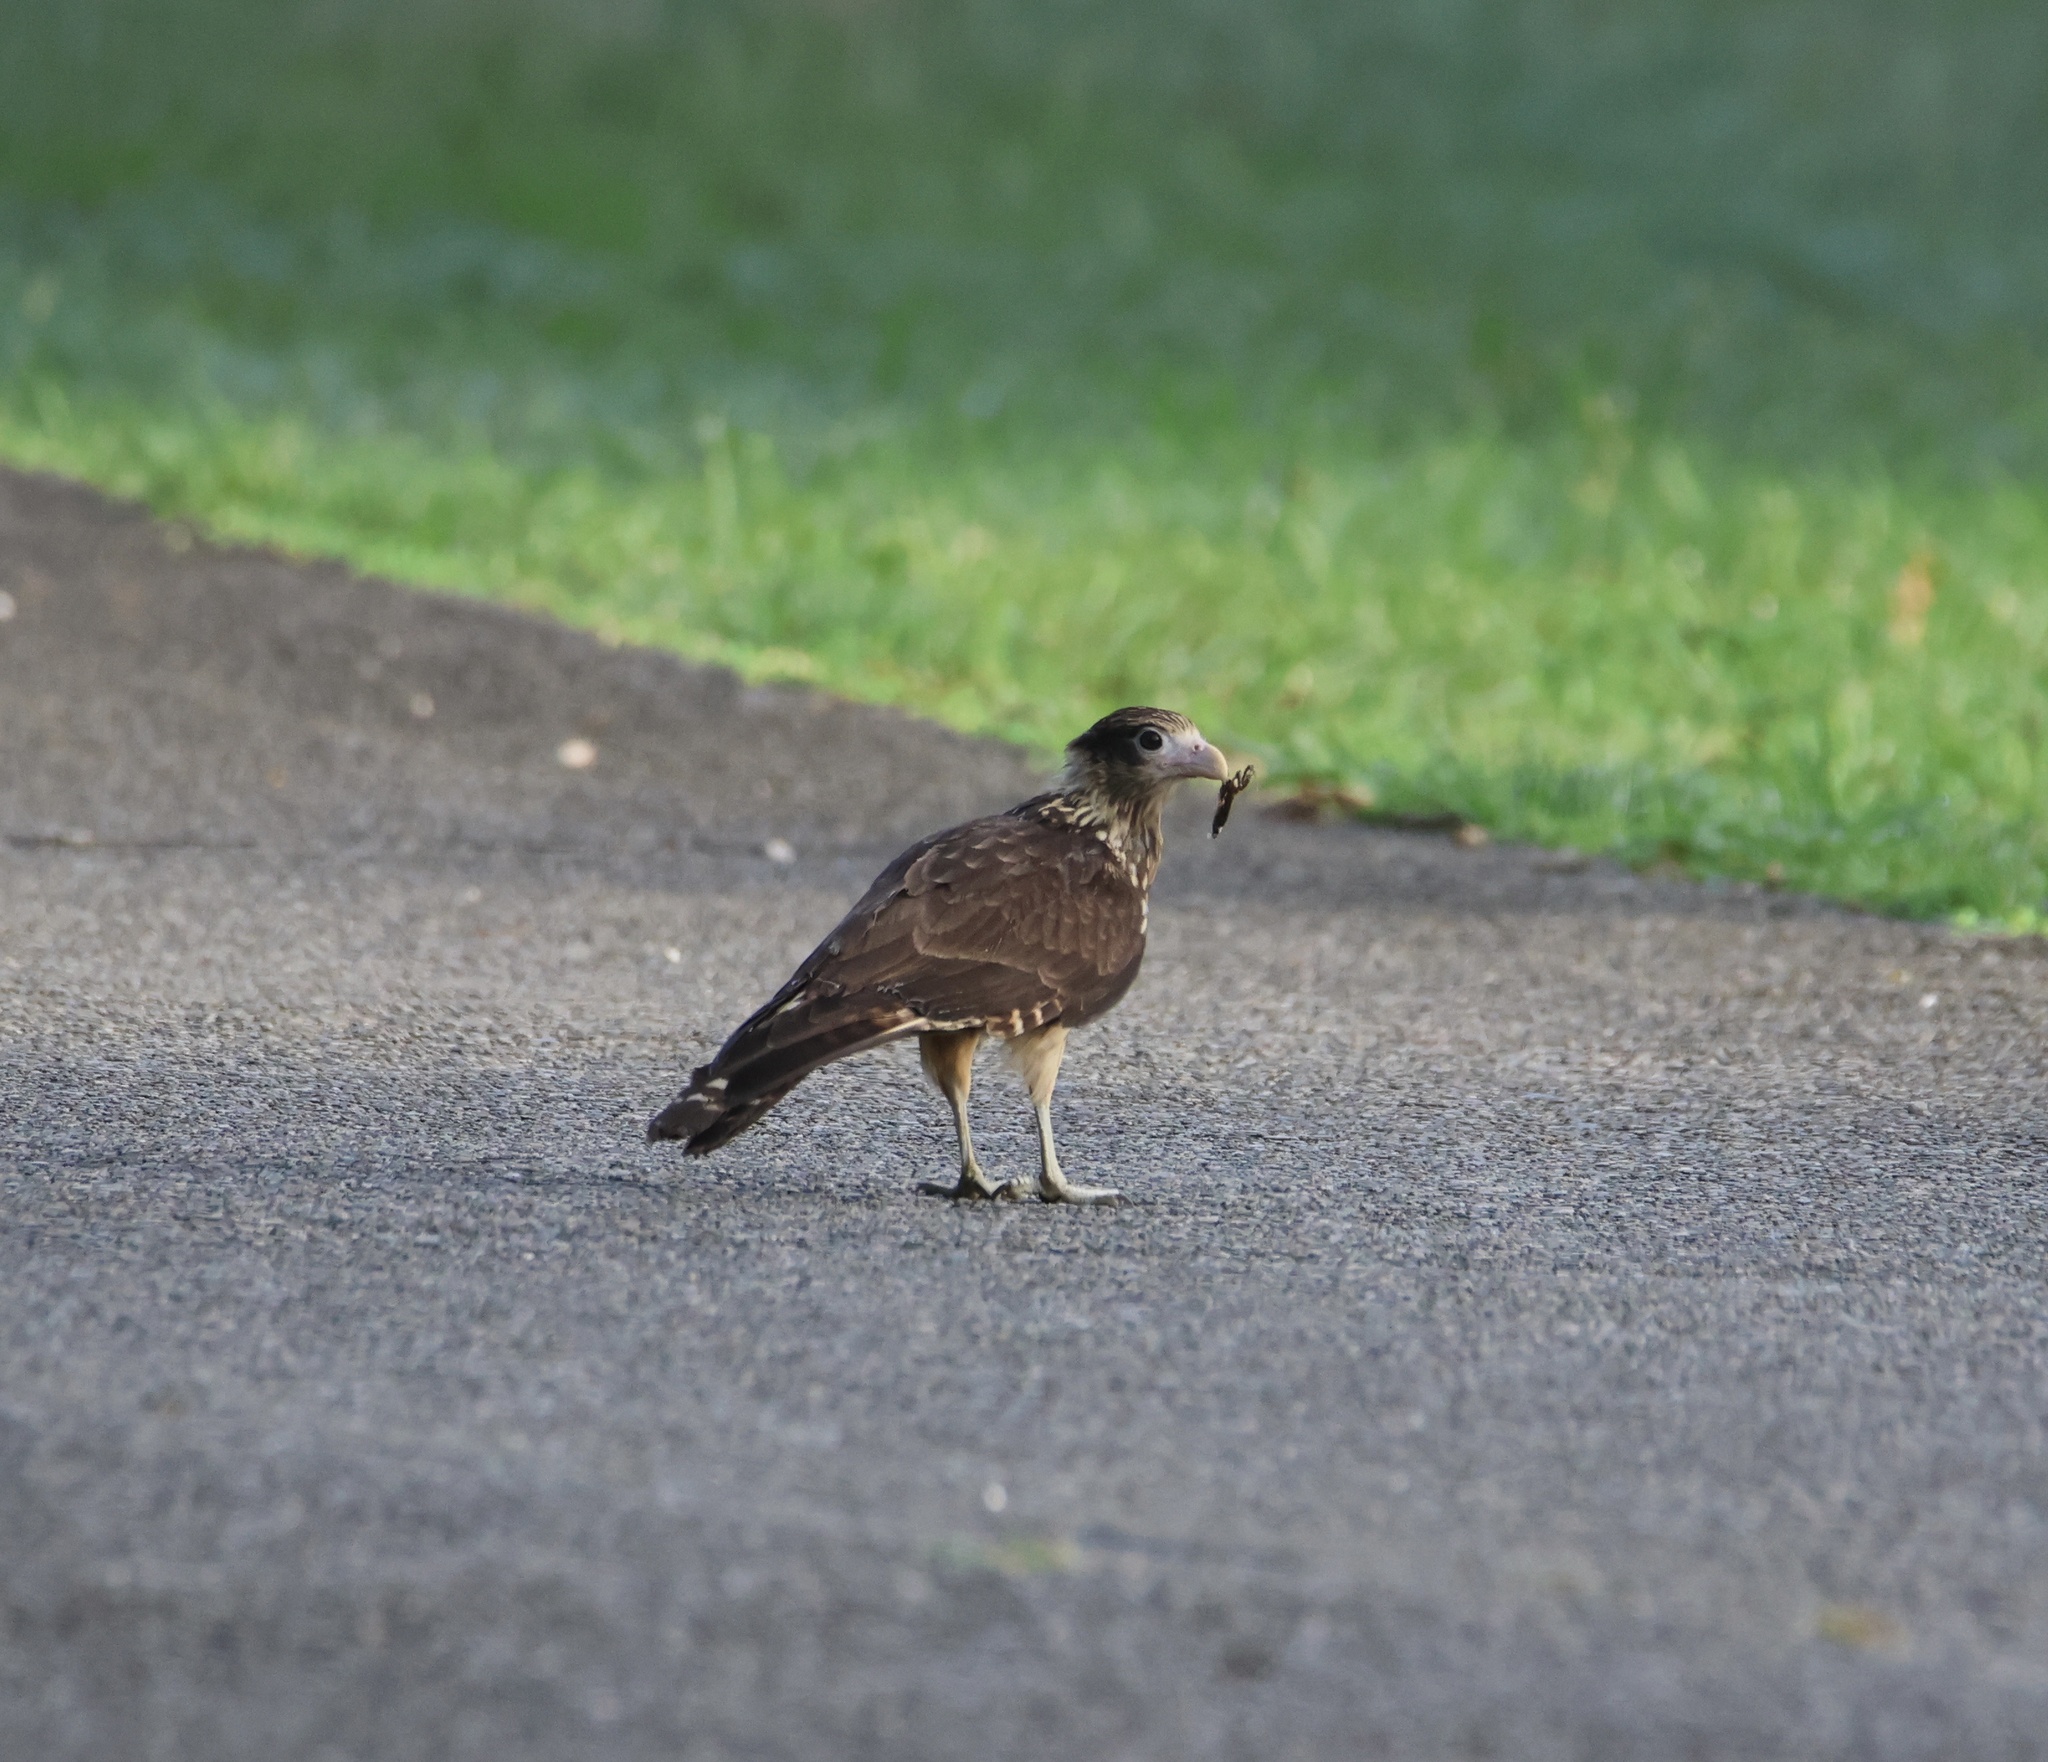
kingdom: Animalia
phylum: Chordata
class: Aves
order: Falconiformes
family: Falconidae
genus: Daptrius
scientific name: Daptrius
